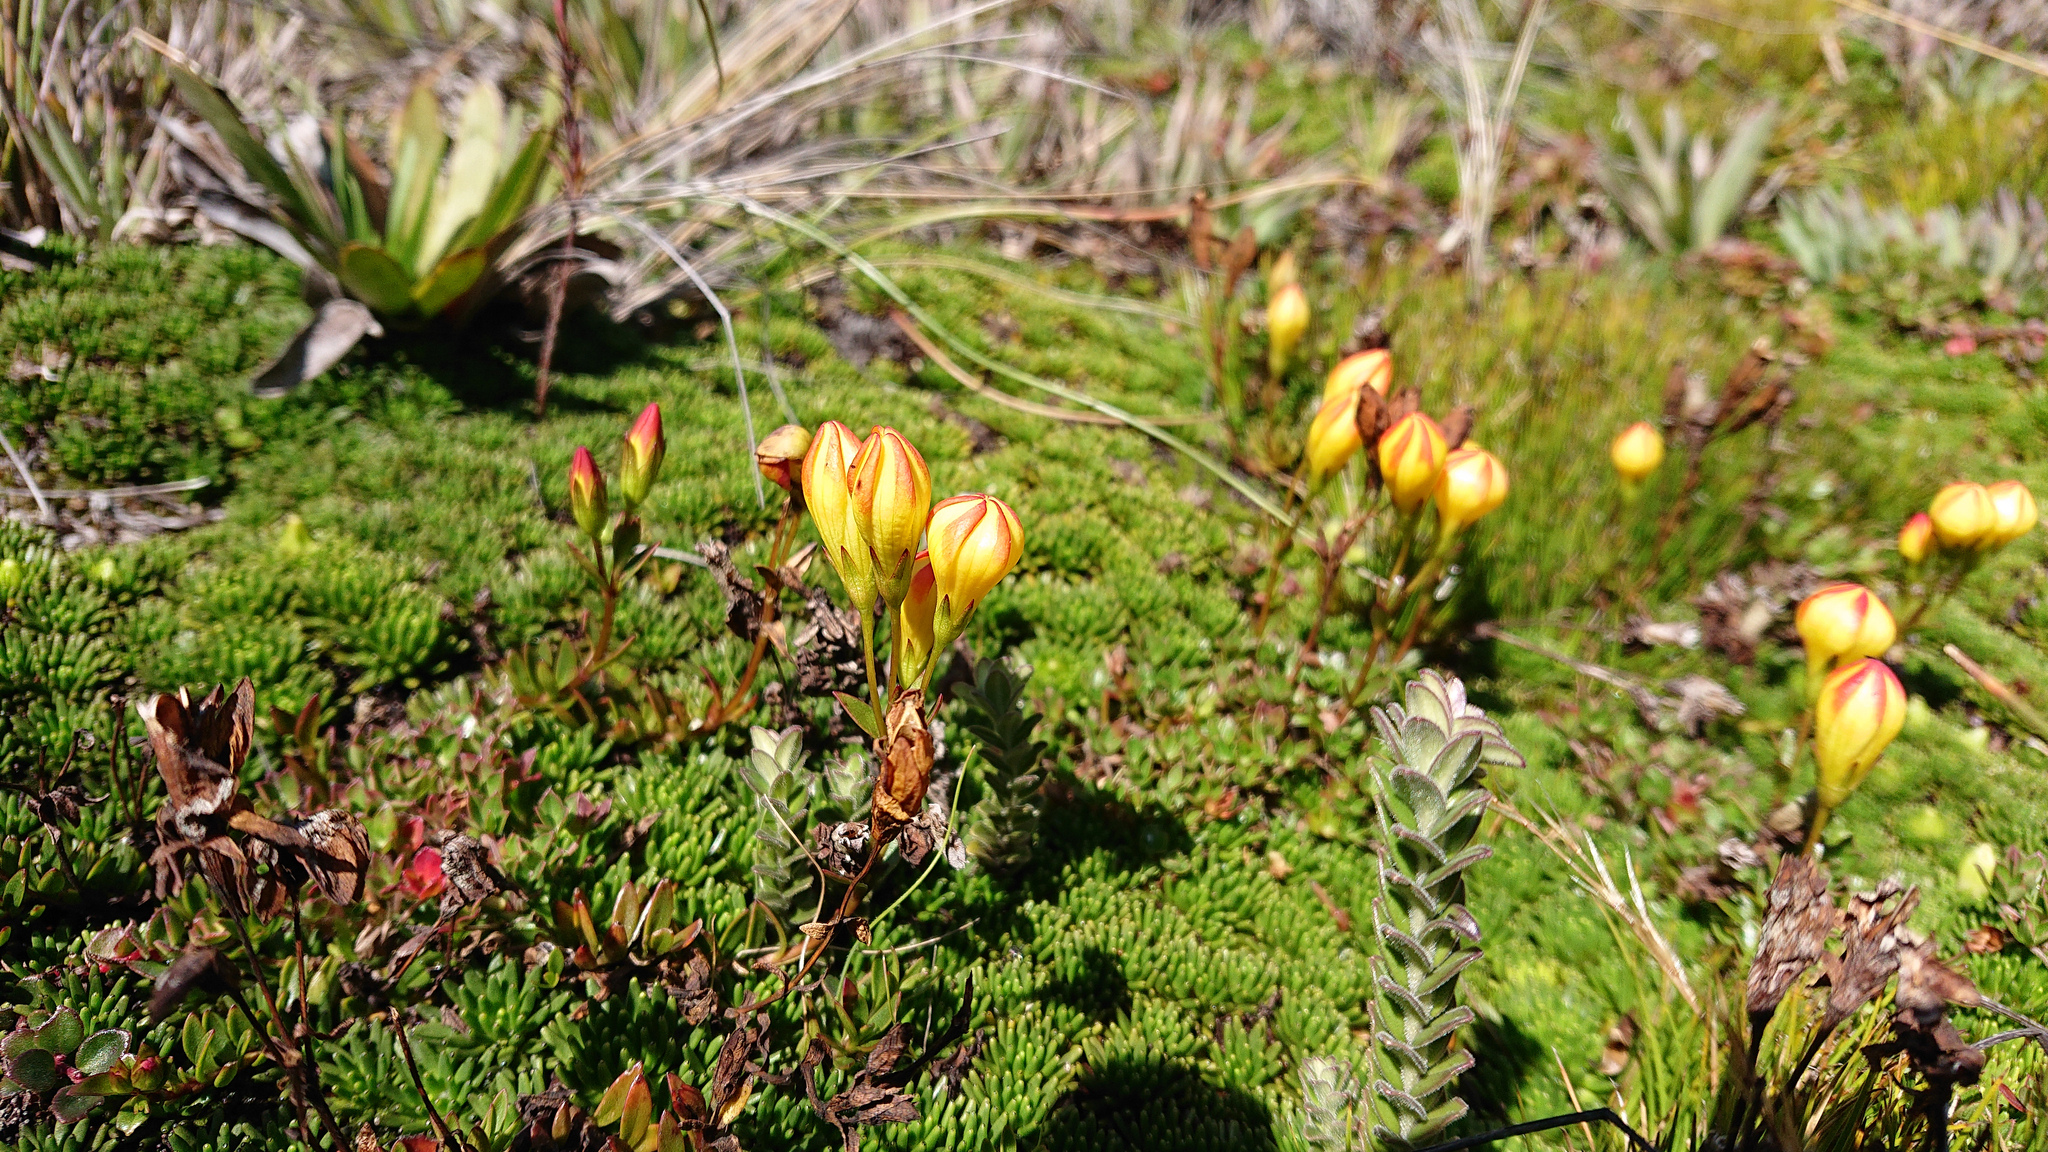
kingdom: Plantae
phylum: Tracheophyta
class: Magnoliopsida
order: Gentianales
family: Gentianaceae
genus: Gentianella
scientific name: Gentianella hirculus
